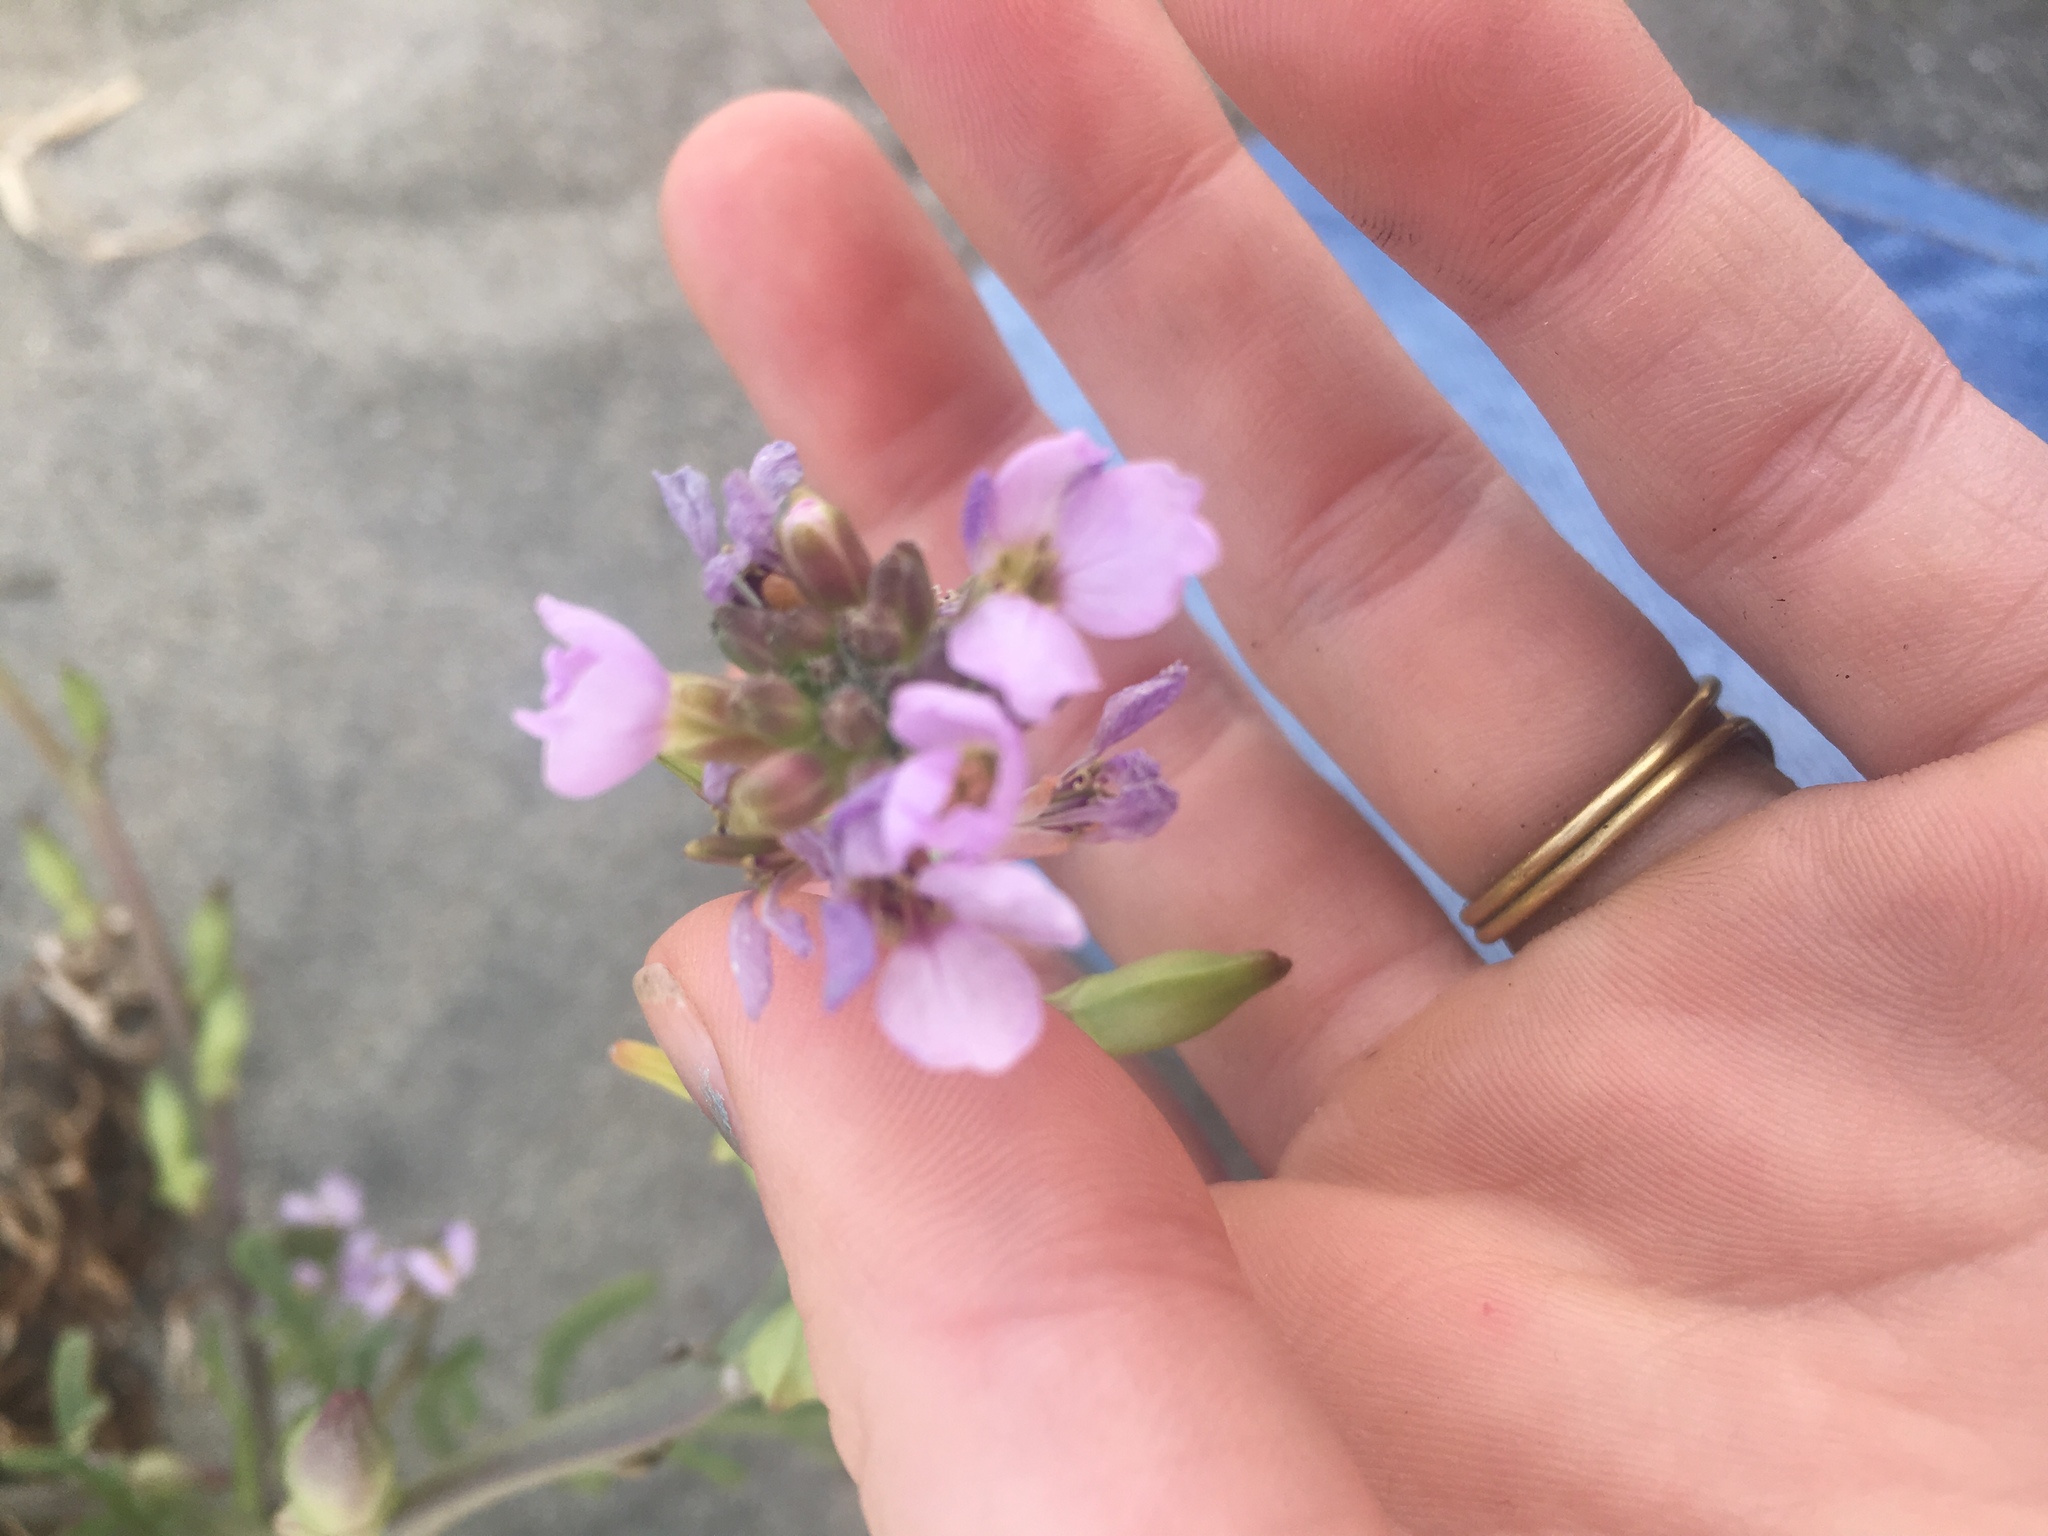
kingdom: Plantae
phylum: Tracheophyta
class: Magnoliopsida
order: Brassicales
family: Brassicaceae
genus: Cakile
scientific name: Cakile maritima
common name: Sea rocket
